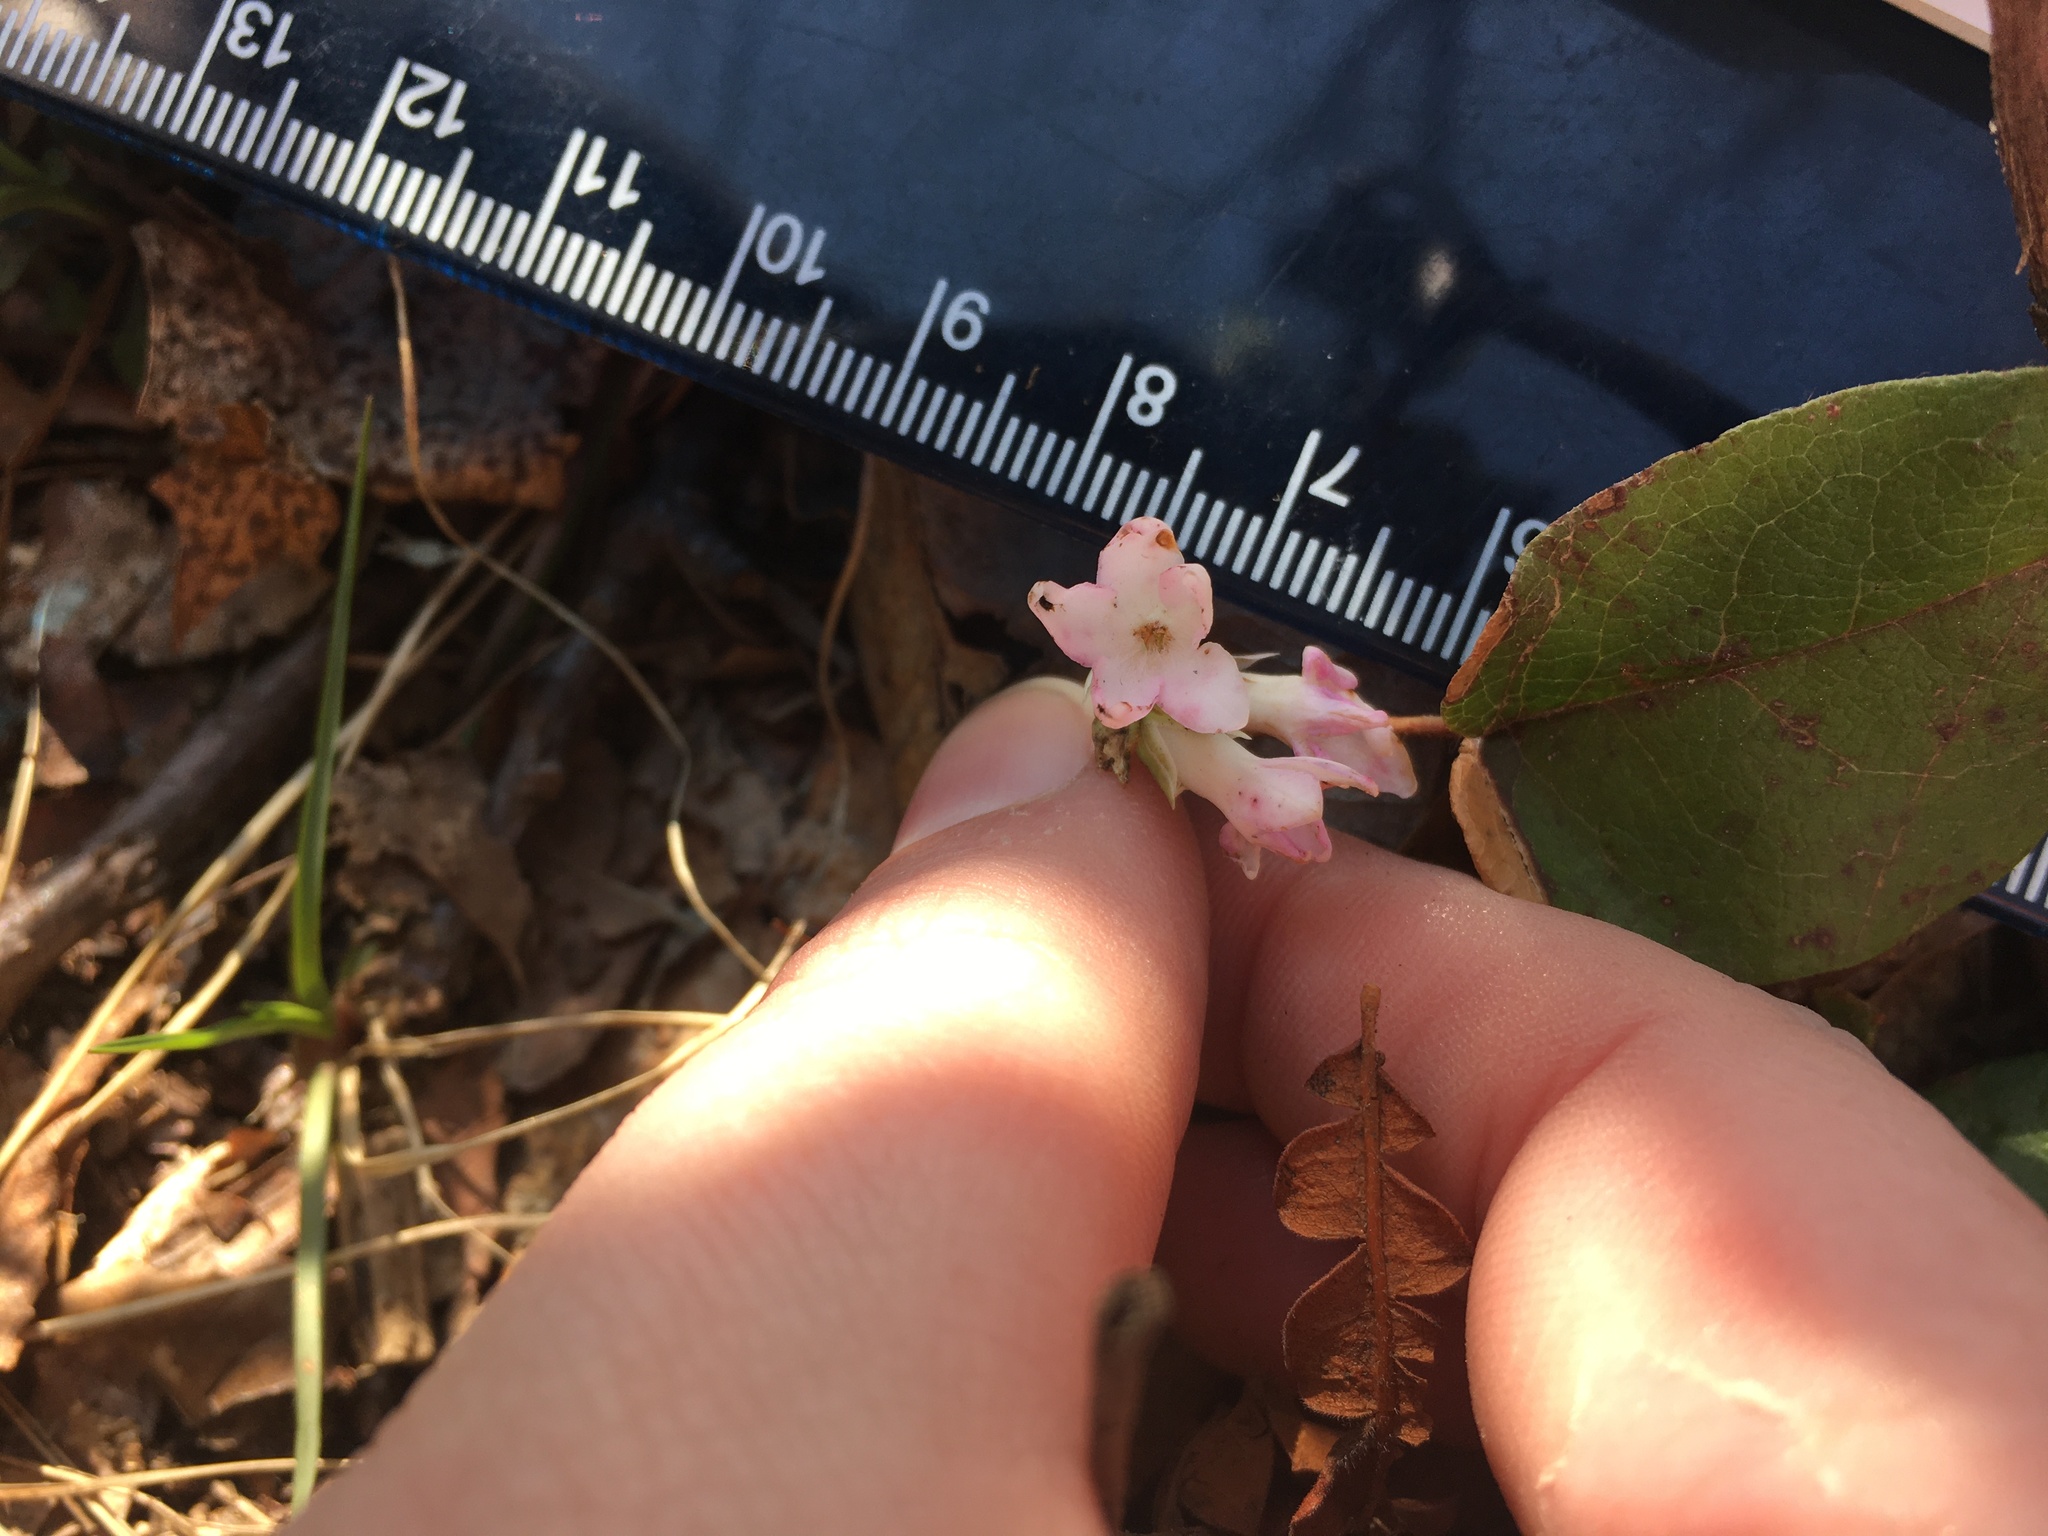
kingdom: Plantae
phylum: Tracheophyta
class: Magnoliopsida
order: Ericales
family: Ericaceae
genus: Epigaea
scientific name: Epigaea repens
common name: Gravelroot
